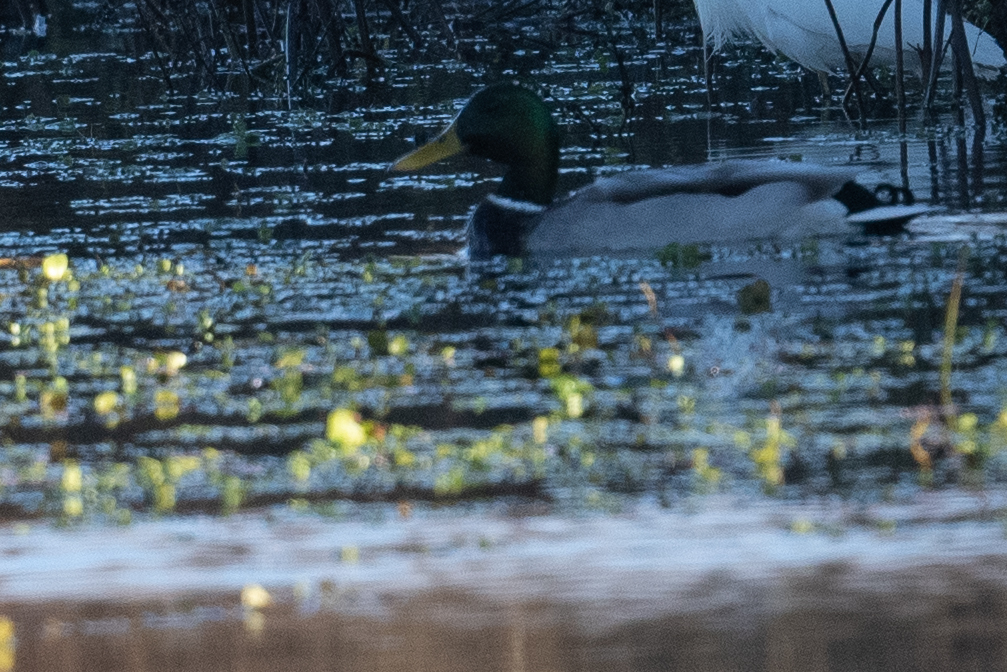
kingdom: Animalia
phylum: Chordata
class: Aves
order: Anseriformes
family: Anatidae
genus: Anas
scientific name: Anas platyrhynchos
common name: Mallard
